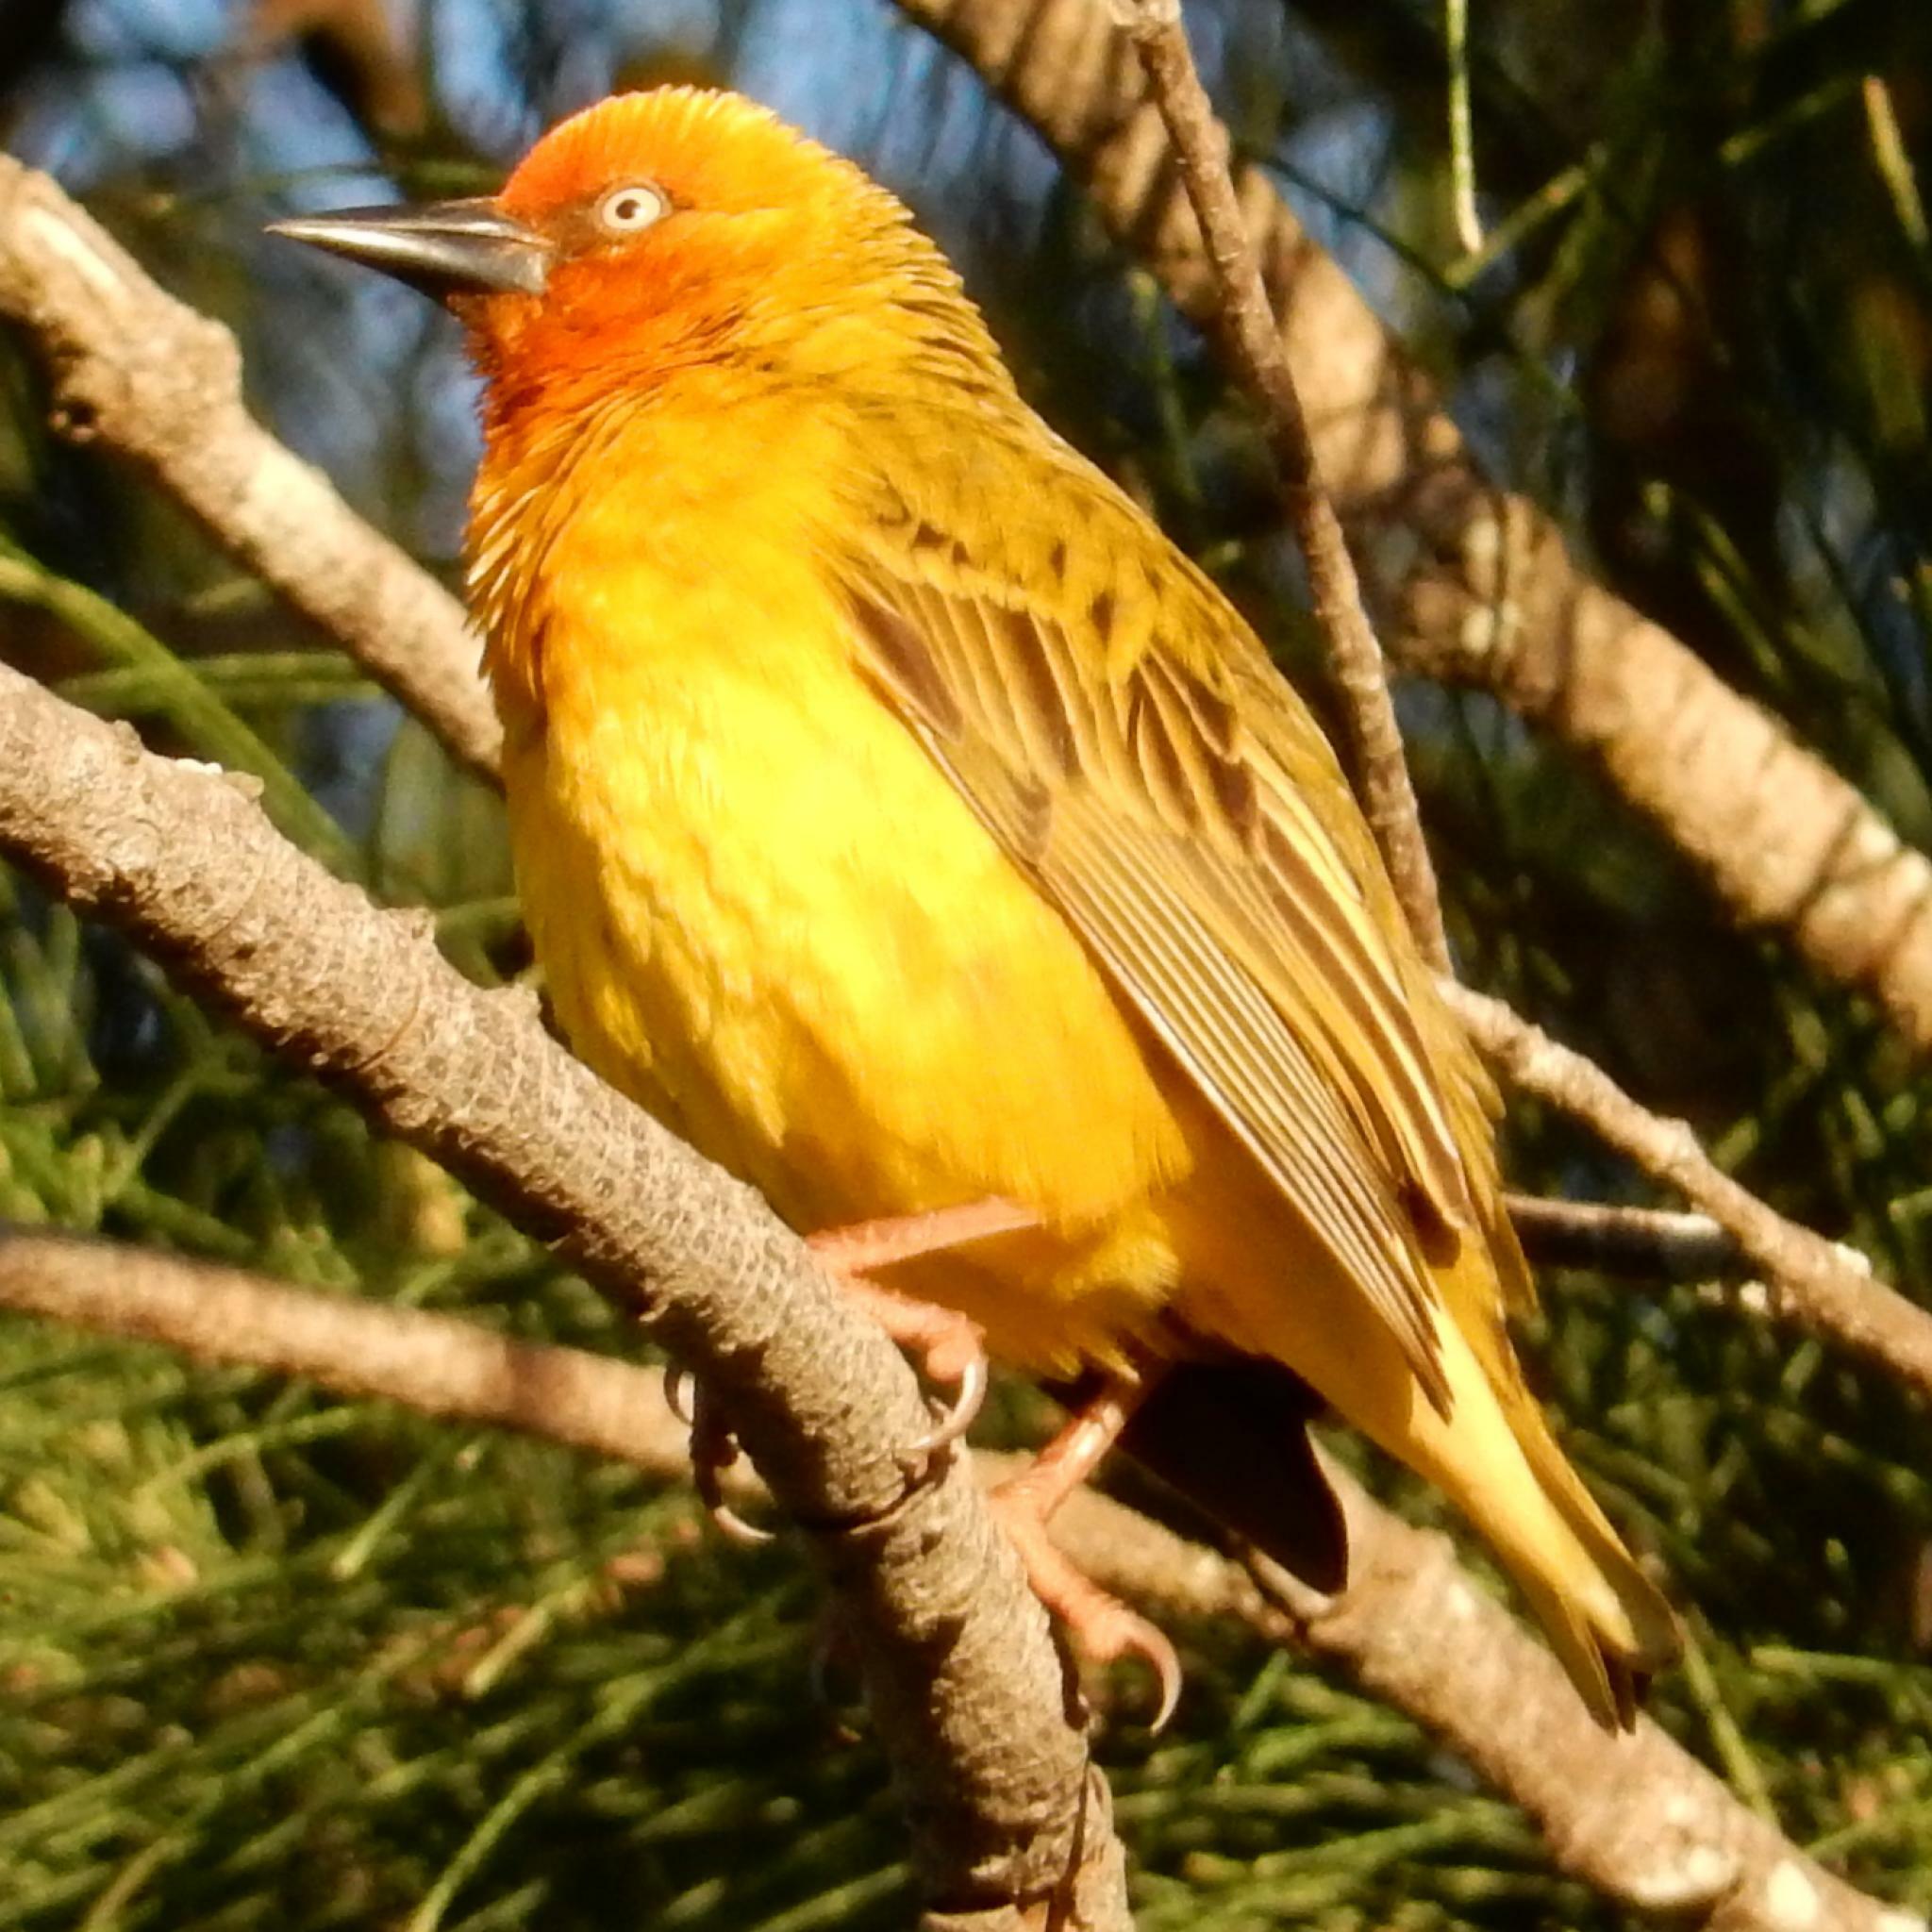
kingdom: Animalia
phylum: Chordata
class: Aves
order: Passeriformes
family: Ploceidae
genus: Ploceus
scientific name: Ploceus capensis
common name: Cape weaver
